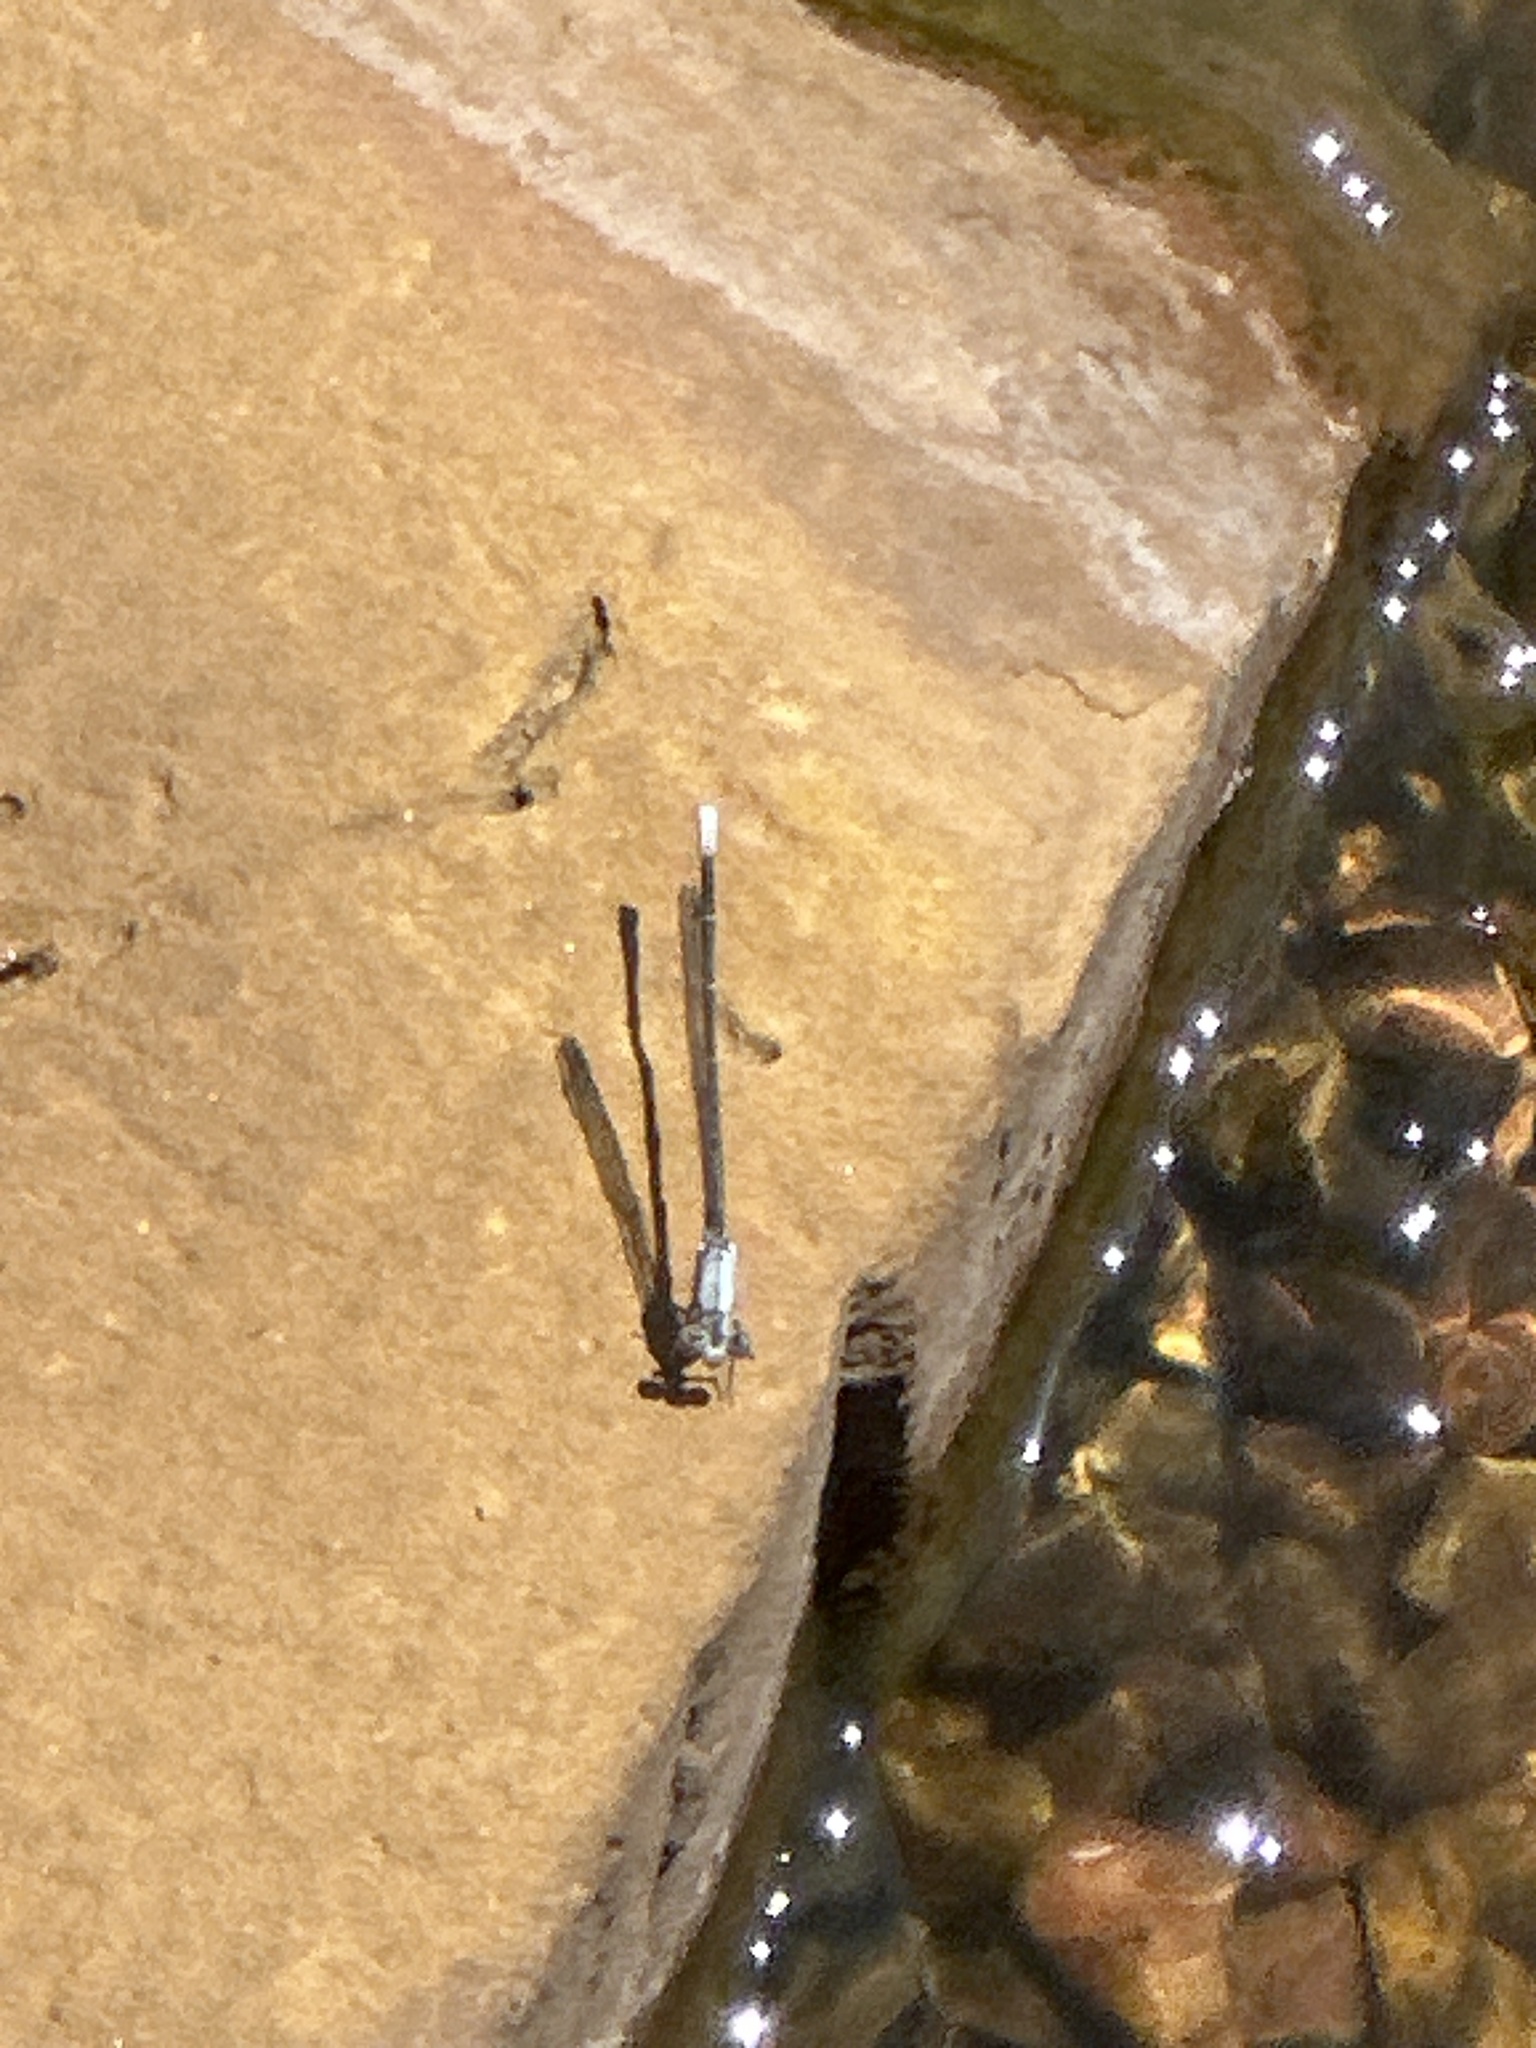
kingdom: Animalia
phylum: Arthropoda
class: Insecta
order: Odonata
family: Coenagrionidae
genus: Argia
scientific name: Argia moesta
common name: Powdered dancer
